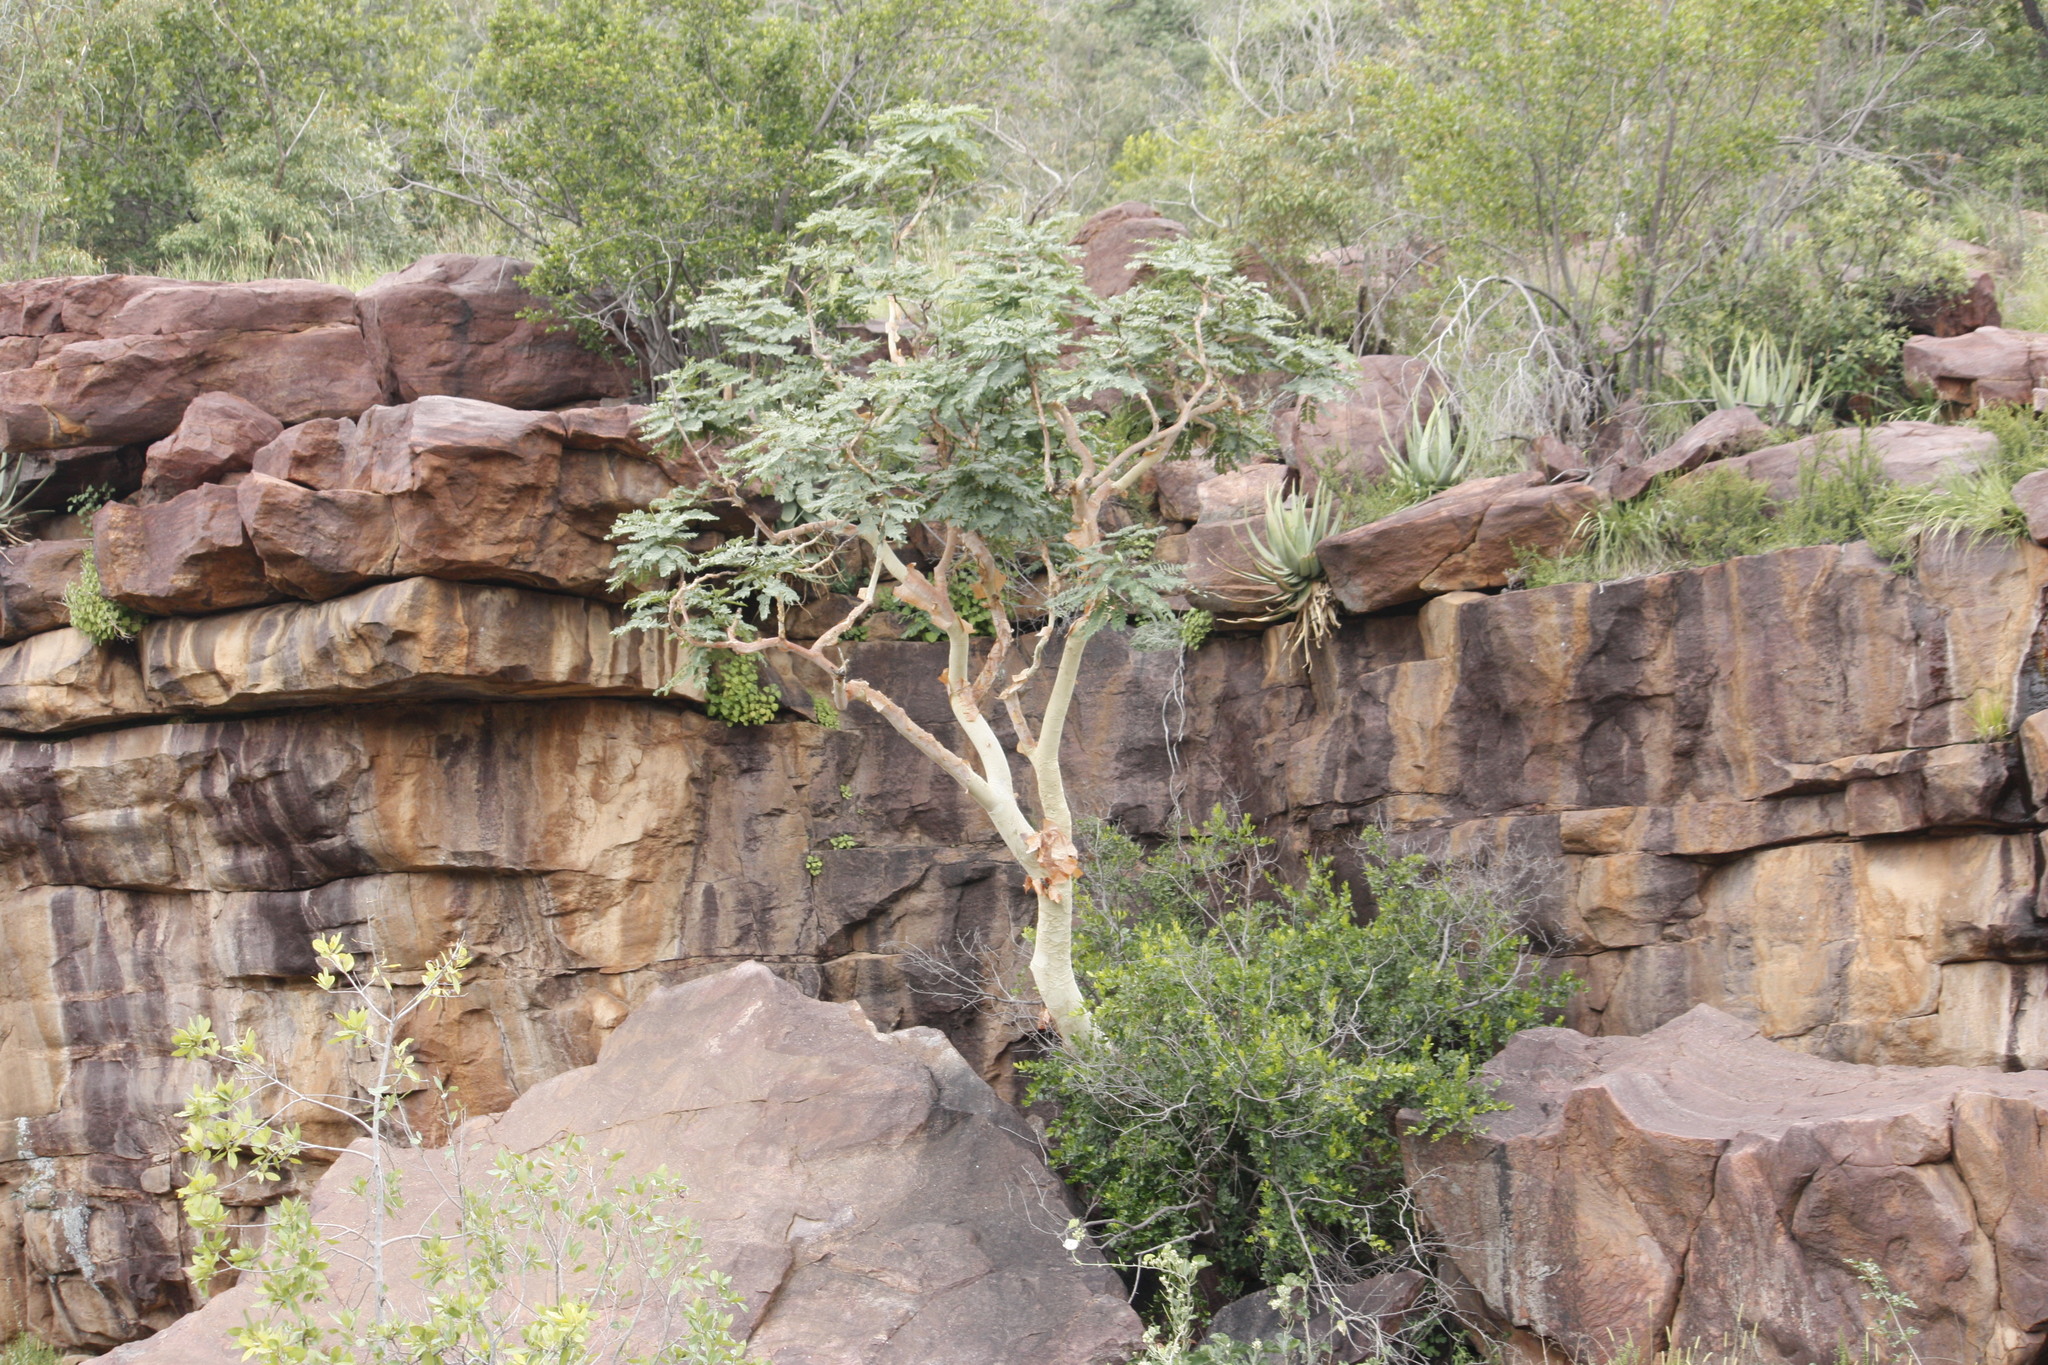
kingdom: Plantae
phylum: Tracheophyta
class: Magnoliopsida
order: Fabales
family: Fabaceae
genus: Albizia
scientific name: Albizia tanganyicensis
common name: Paperbark false thorn
